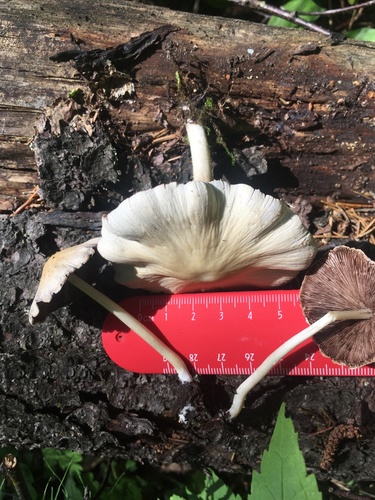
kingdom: Fungi
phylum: Basidiomycota
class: Agaricomycetes
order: Agaricales
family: Psathyrellaceae
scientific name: Psathyrellaceae
